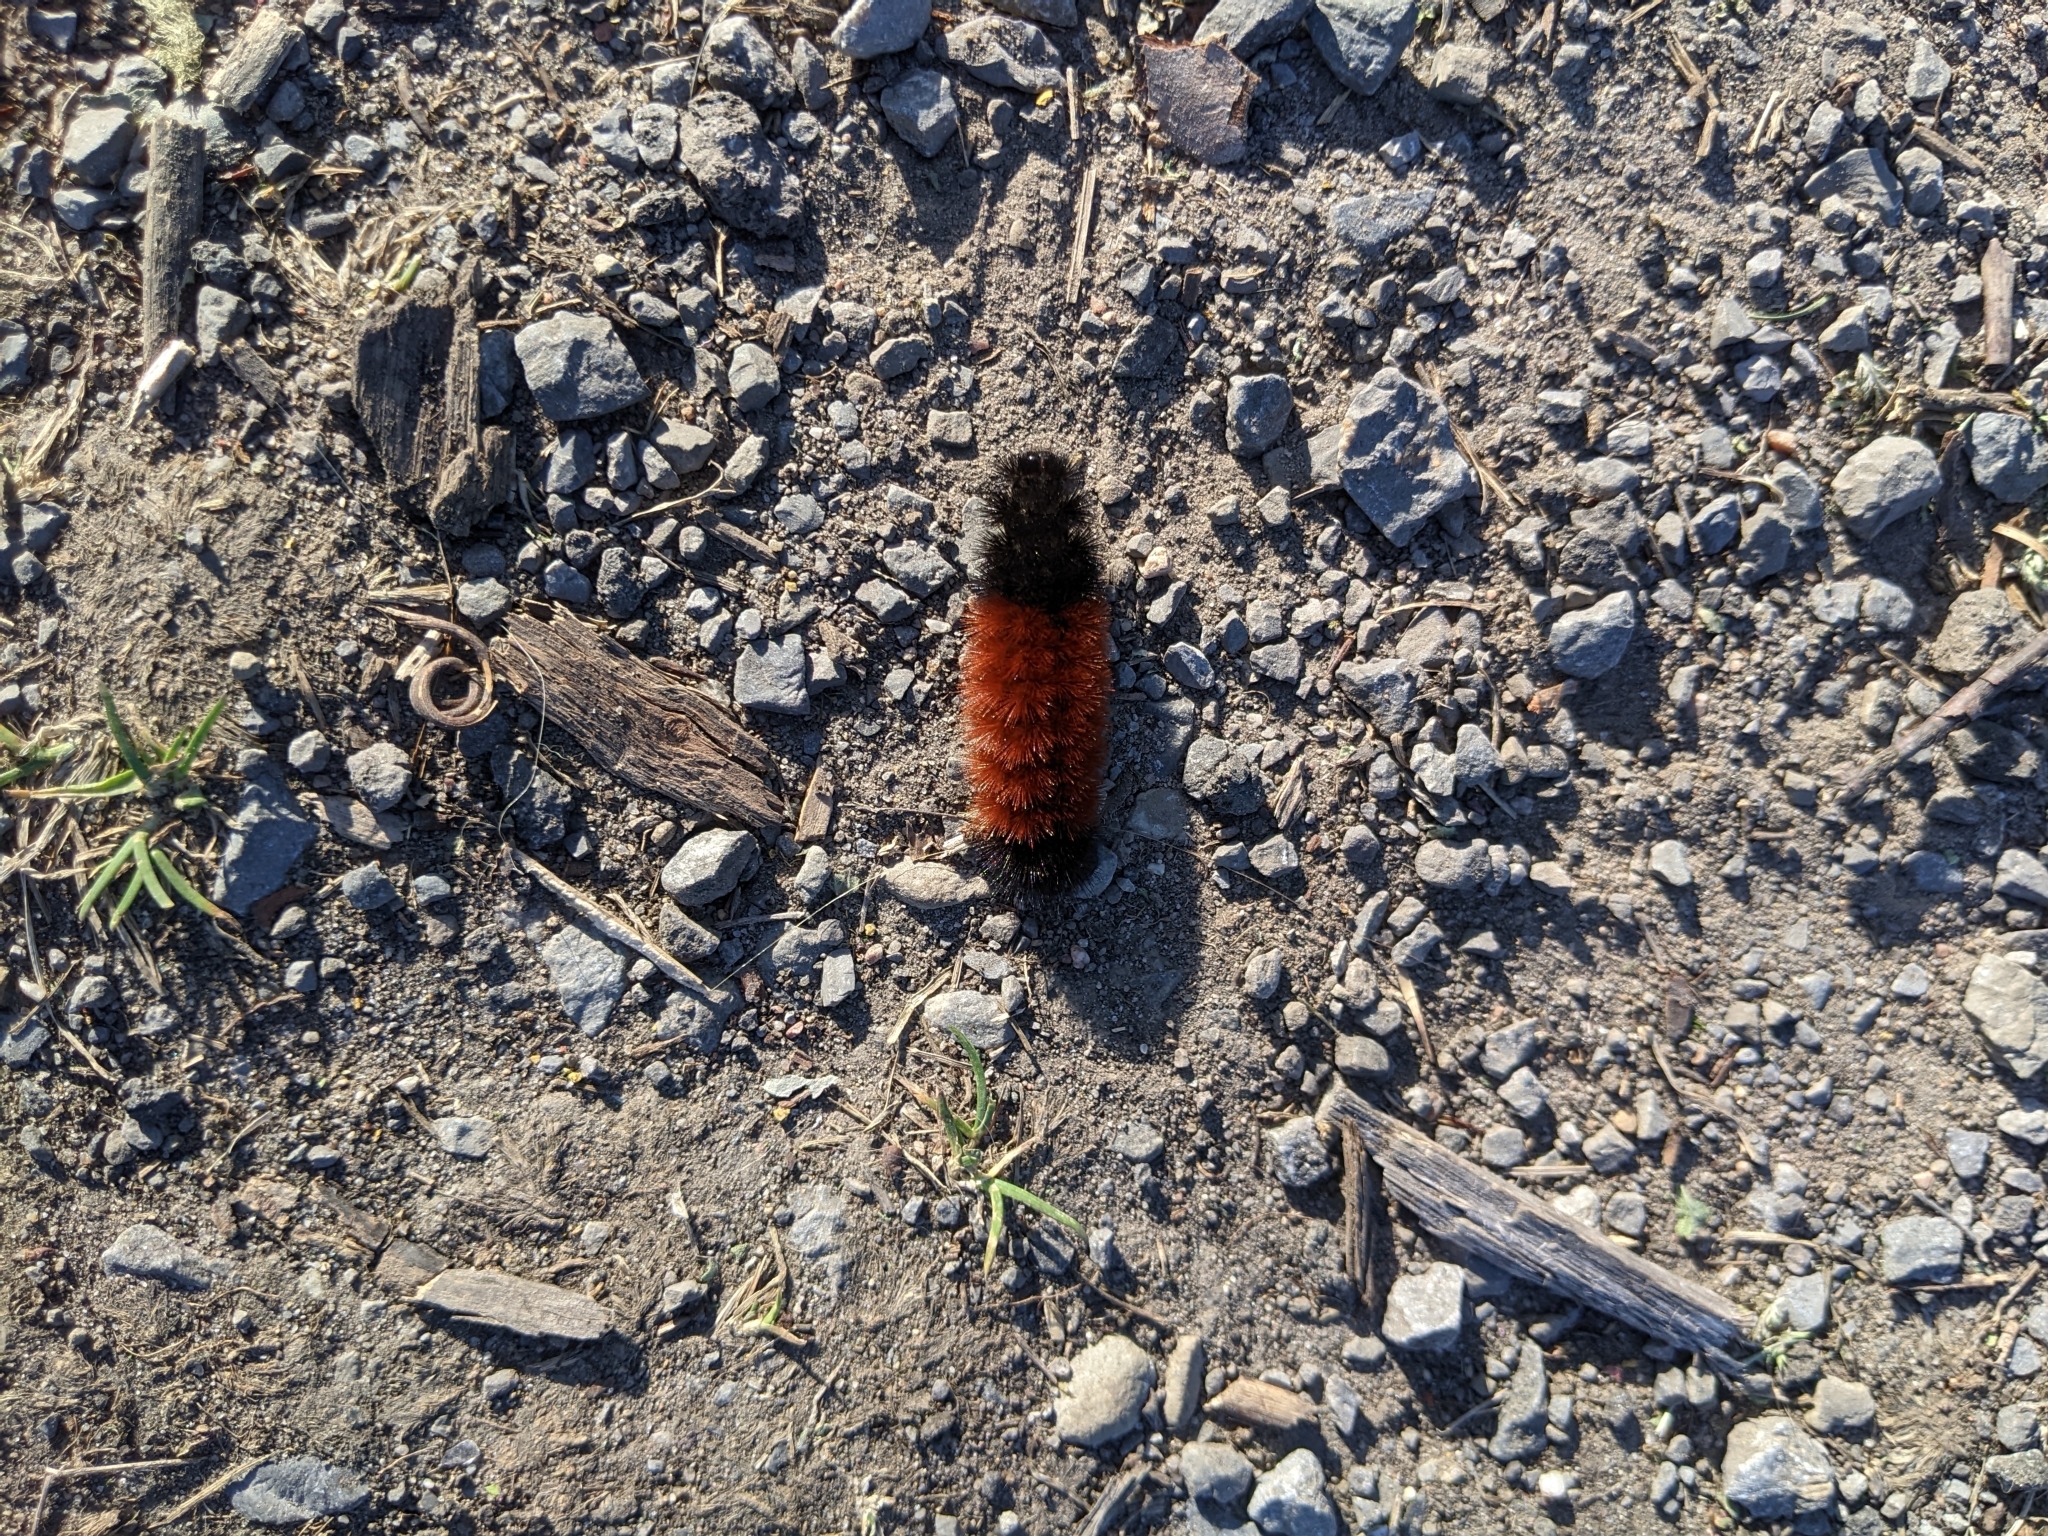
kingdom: Animalia
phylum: Arthropoda
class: Insecta
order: Lepidoptera
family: Erebidae
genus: Pyrrharctia
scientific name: Pyrrharctia isabella
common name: Isabella tiger moth
